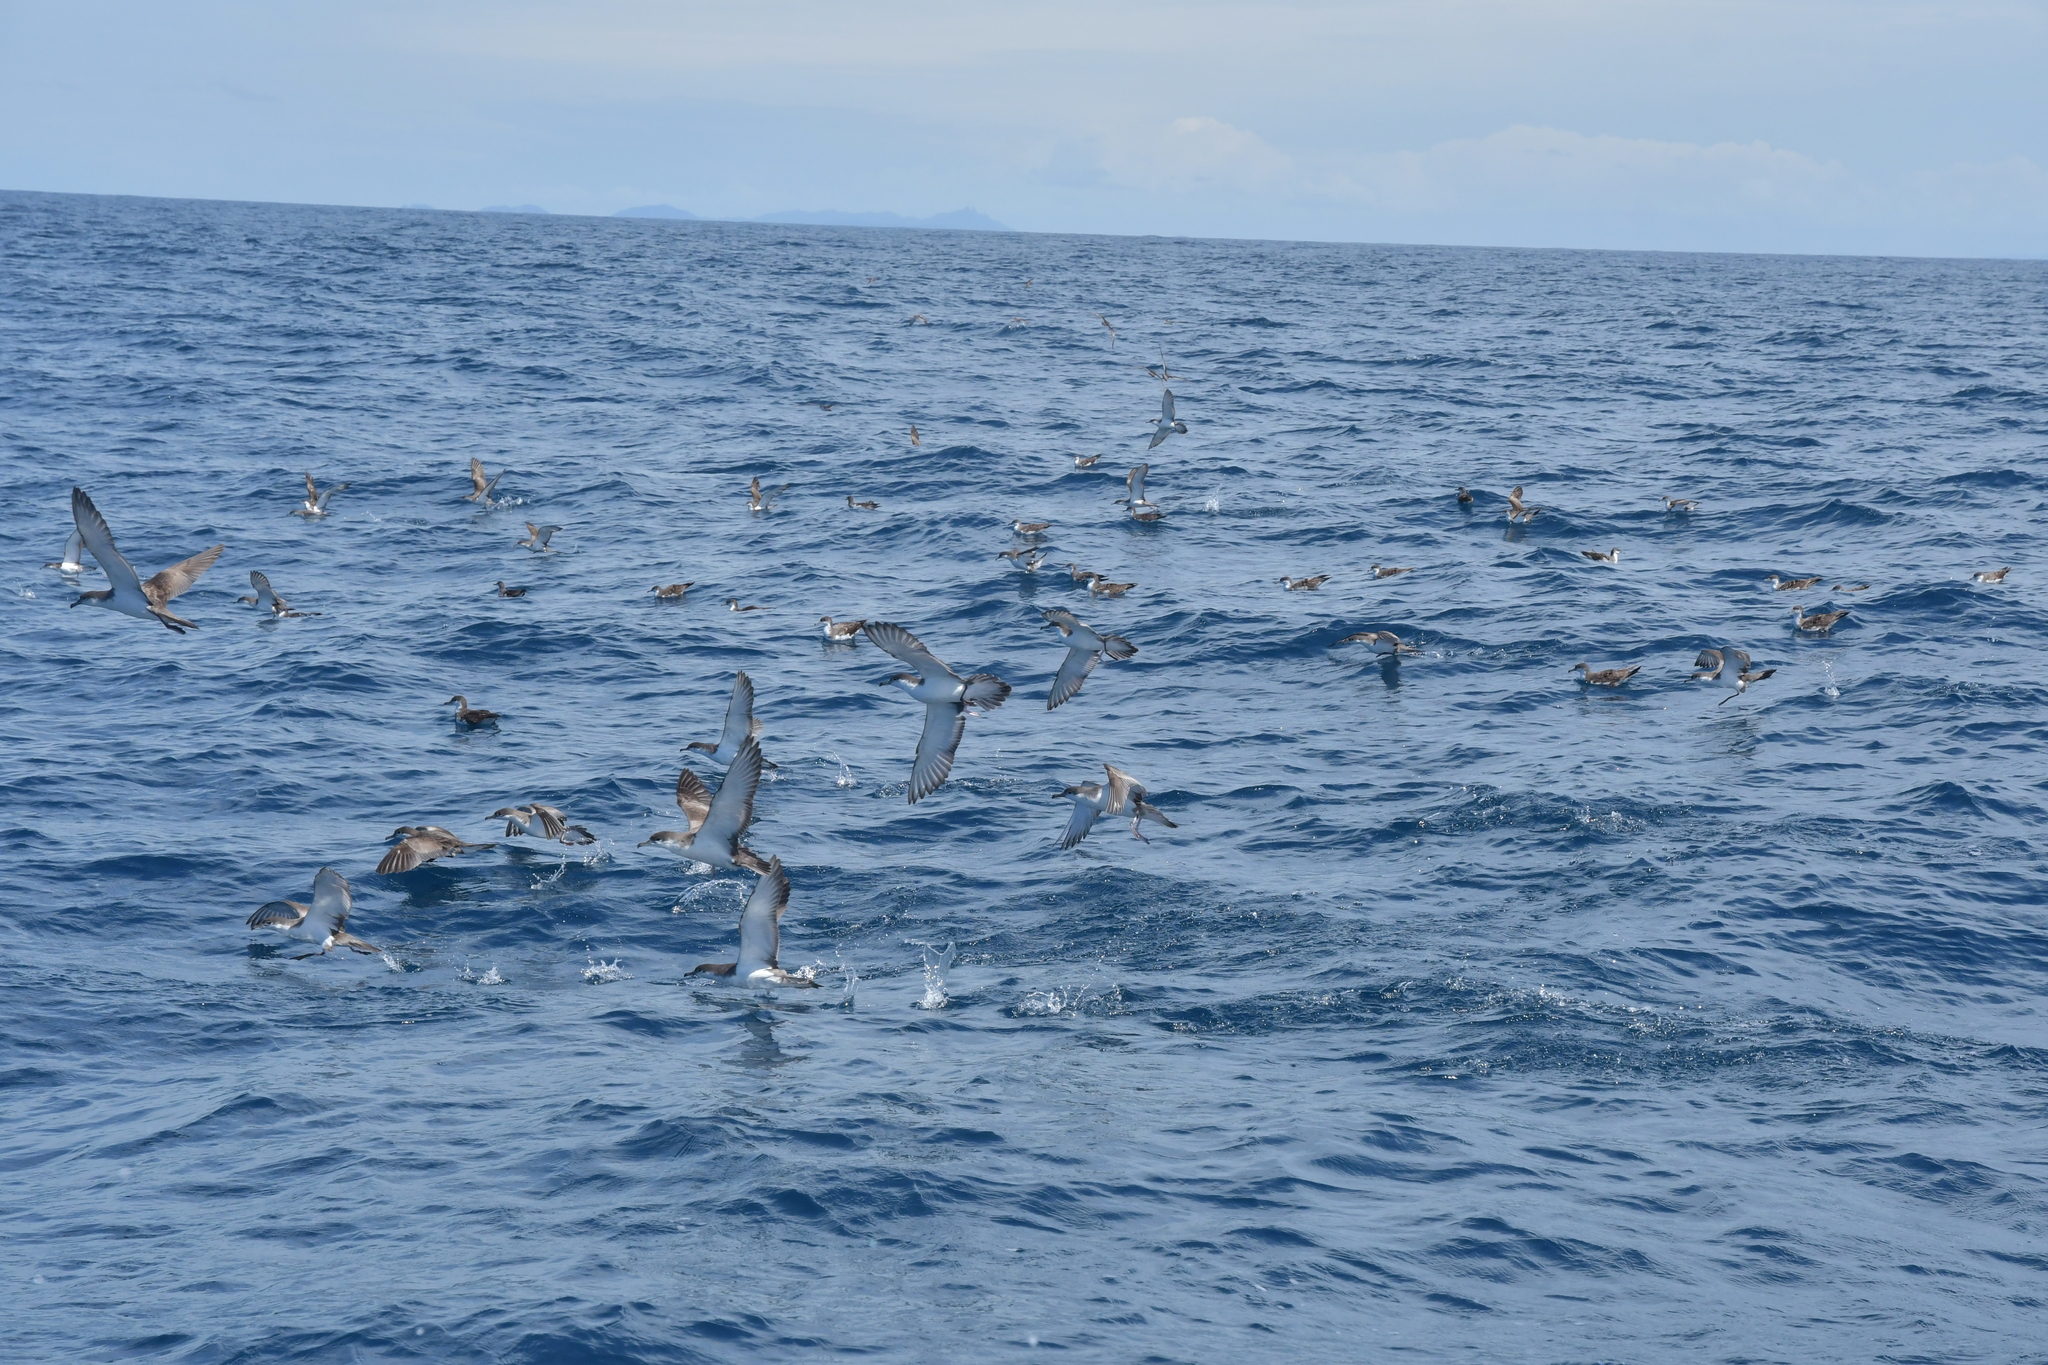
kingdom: Animalia
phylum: Chordata
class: Aves
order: Procellariiformes
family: Procellariidae
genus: Puffinus
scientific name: Puffinus bulleri
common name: Buller's shearwater
